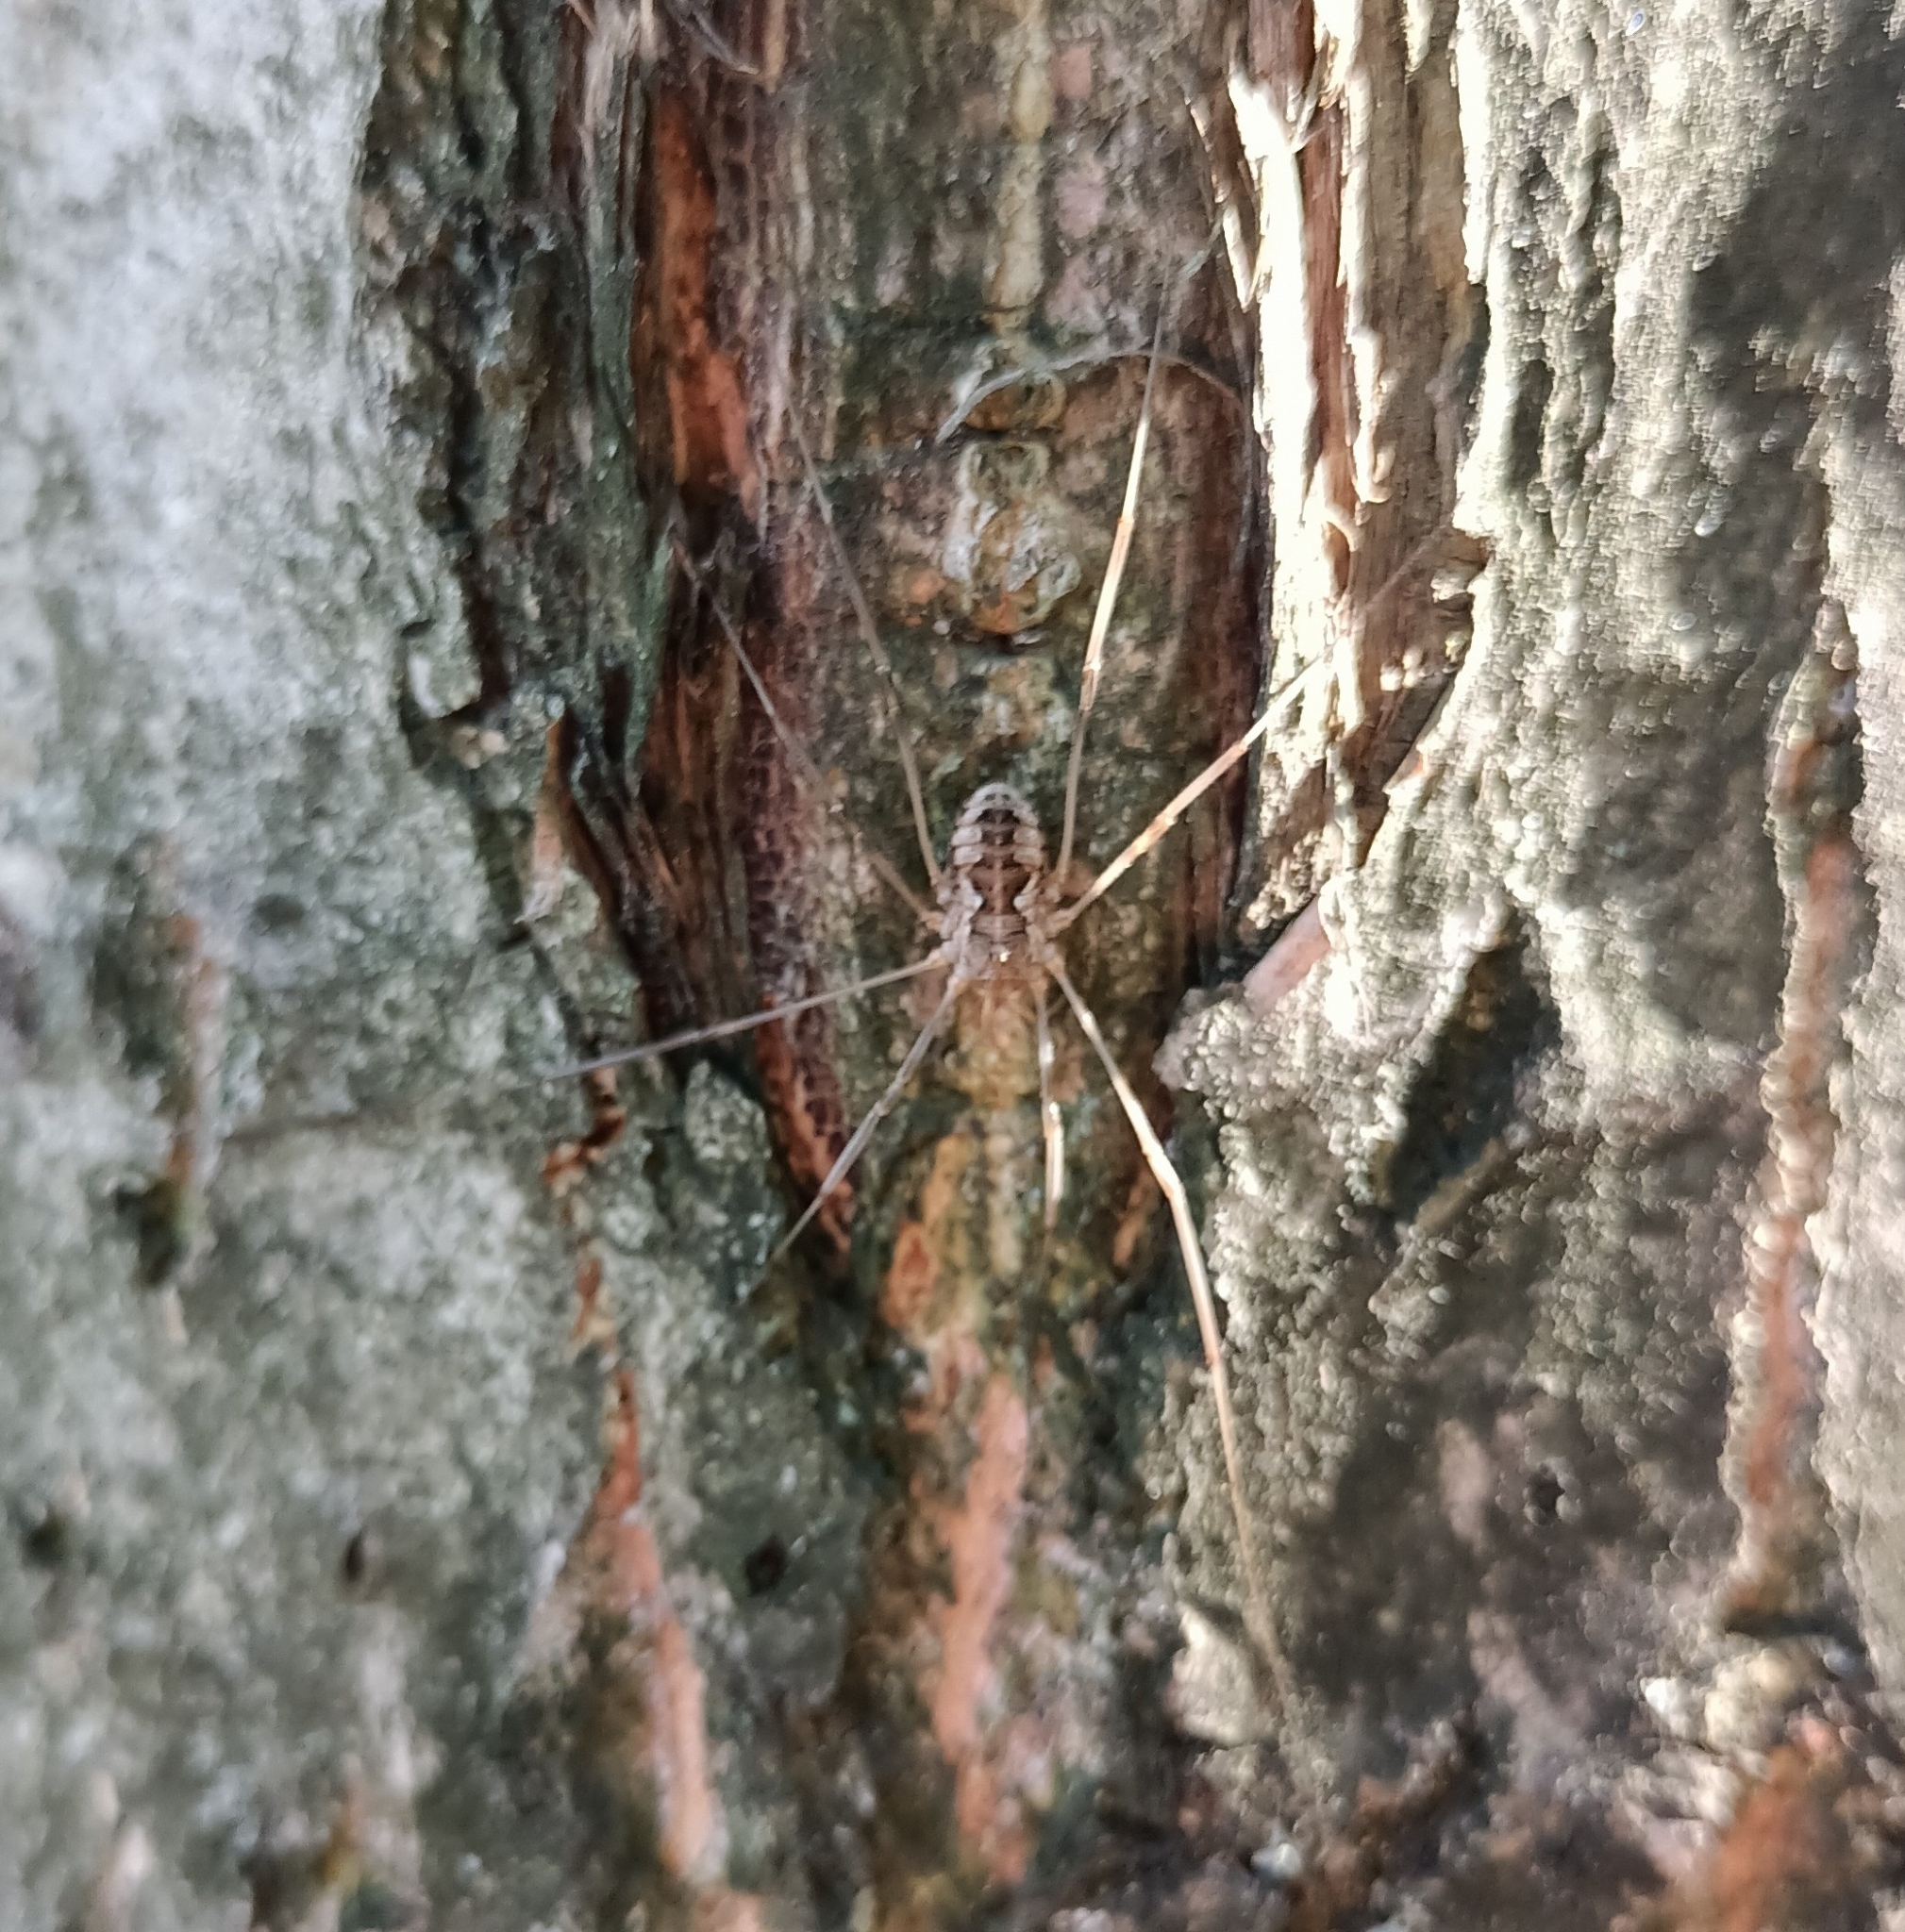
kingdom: Animalia
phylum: Arthropoda
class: Arachnida
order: Opiliones
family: Phalangiidae
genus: Phalangium
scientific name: Phalangium opilio
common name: Daddy longleg
